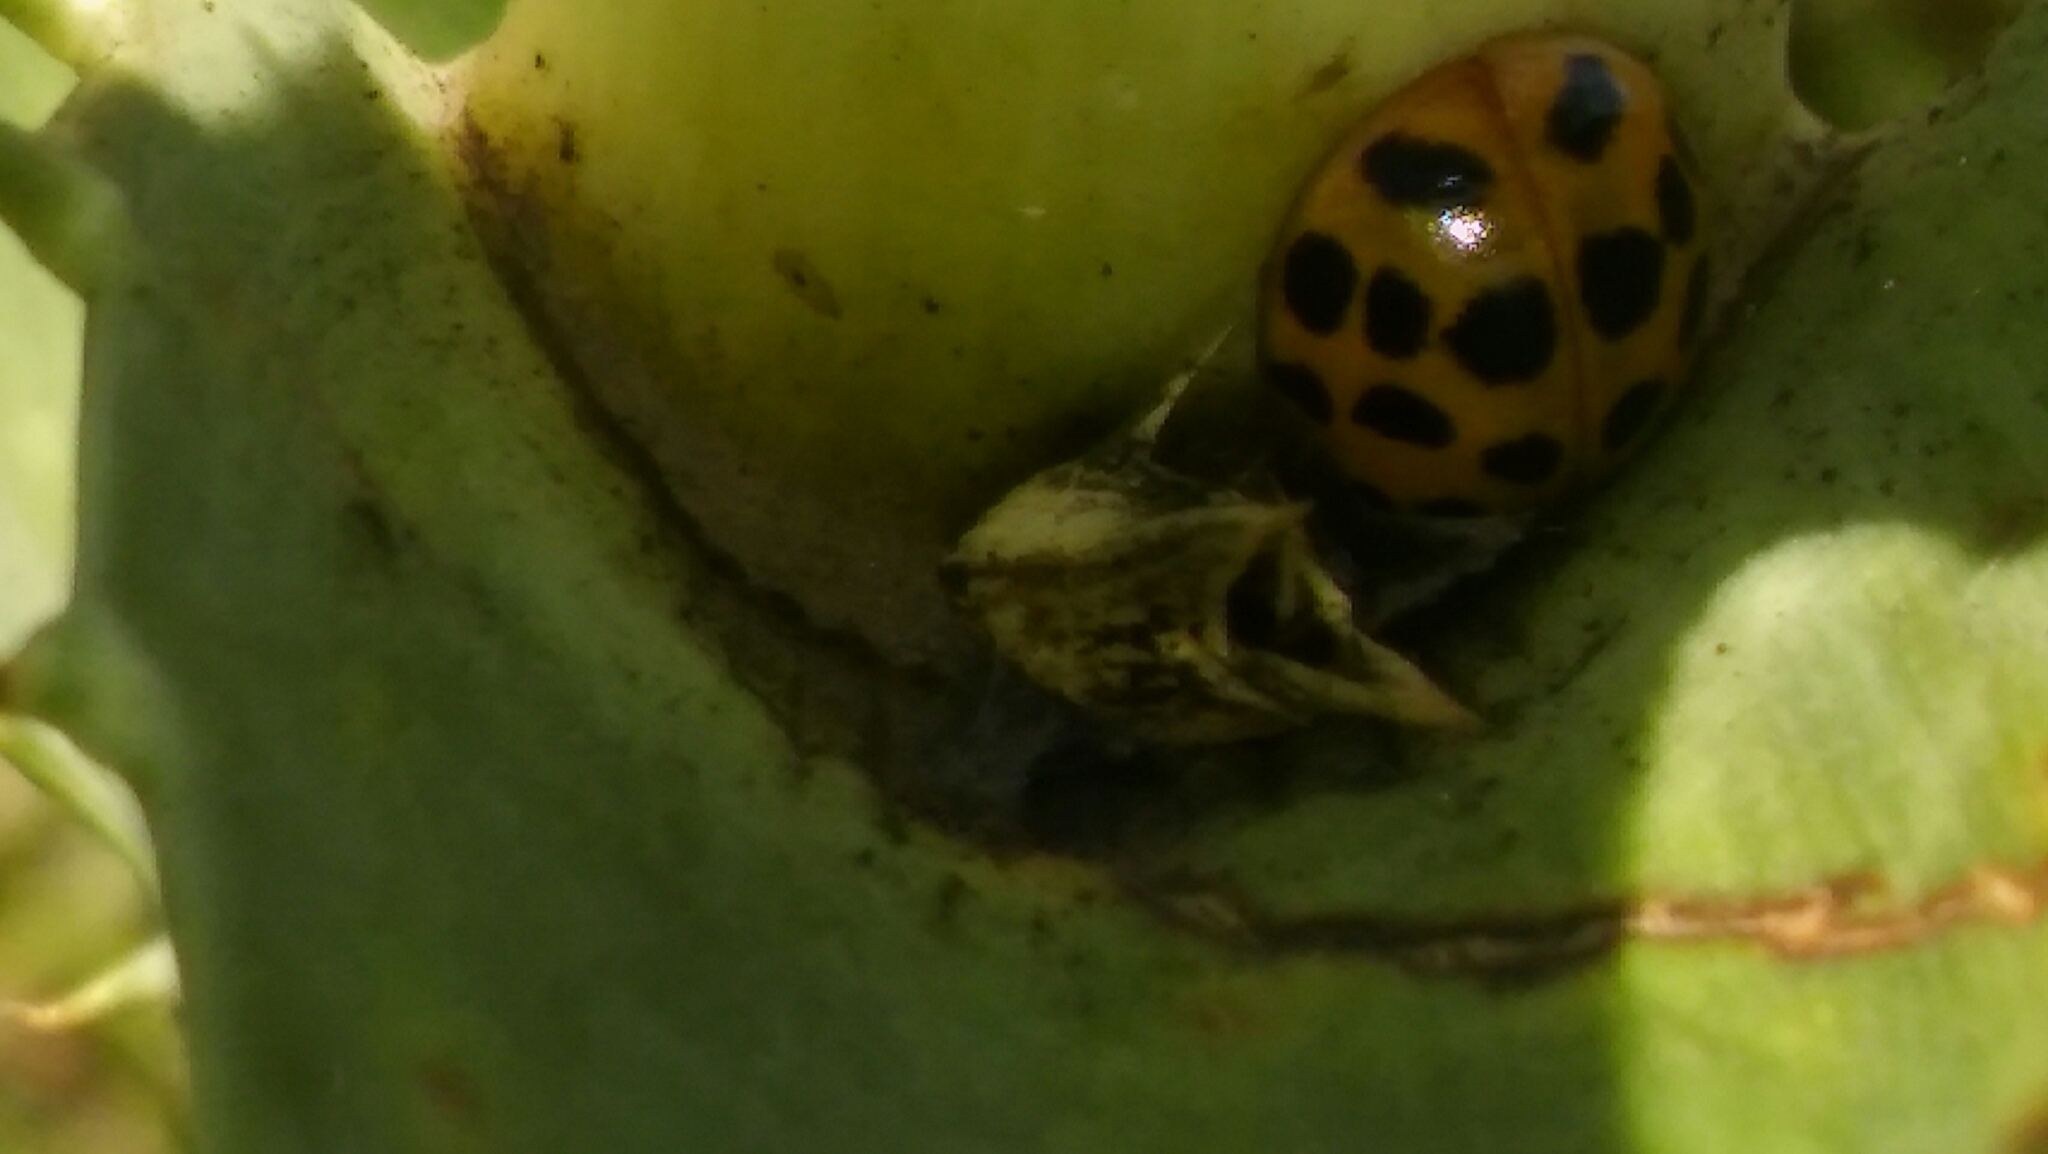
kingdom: Animalia
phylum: Arthropoda
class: Insecta
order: Coleoptera
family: Coccinellidae
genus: Harmonia
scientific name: Harmonia axyridis
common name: Harlequin ladybird
